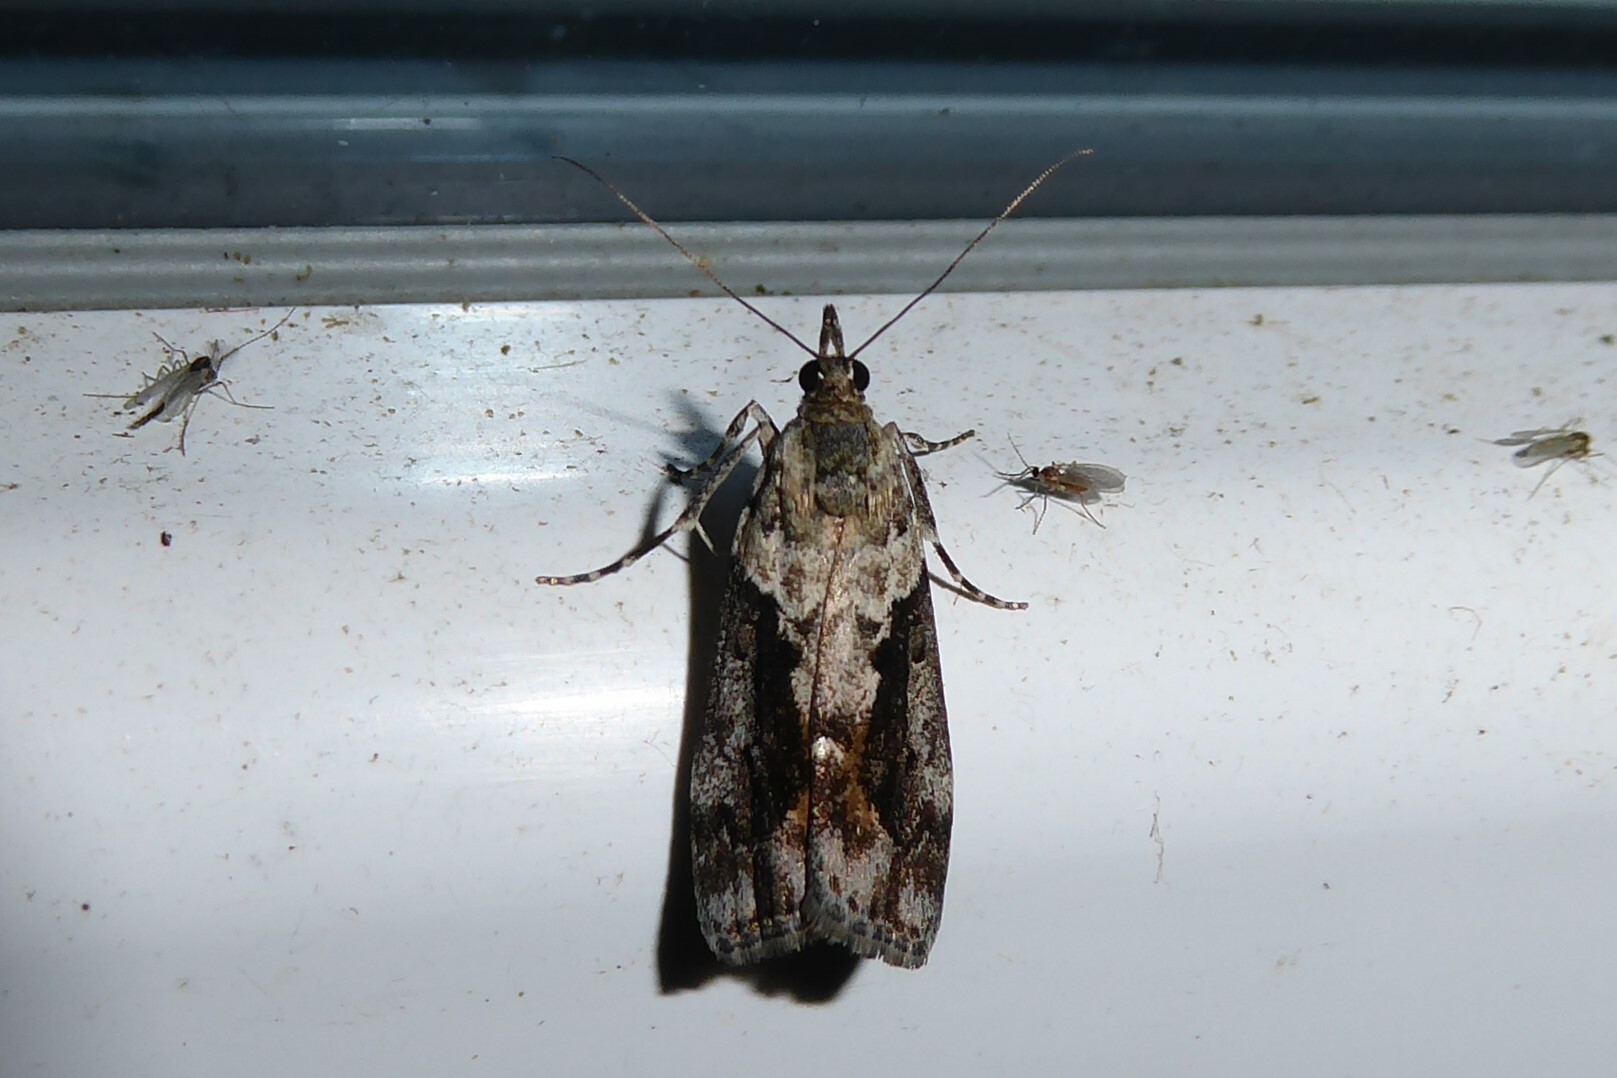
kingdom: Animalia
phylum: Arthropoda
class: Insecta
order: Lepidoptera
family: Crambidae
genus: Eudonia
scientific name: Eudonia submarginalis
